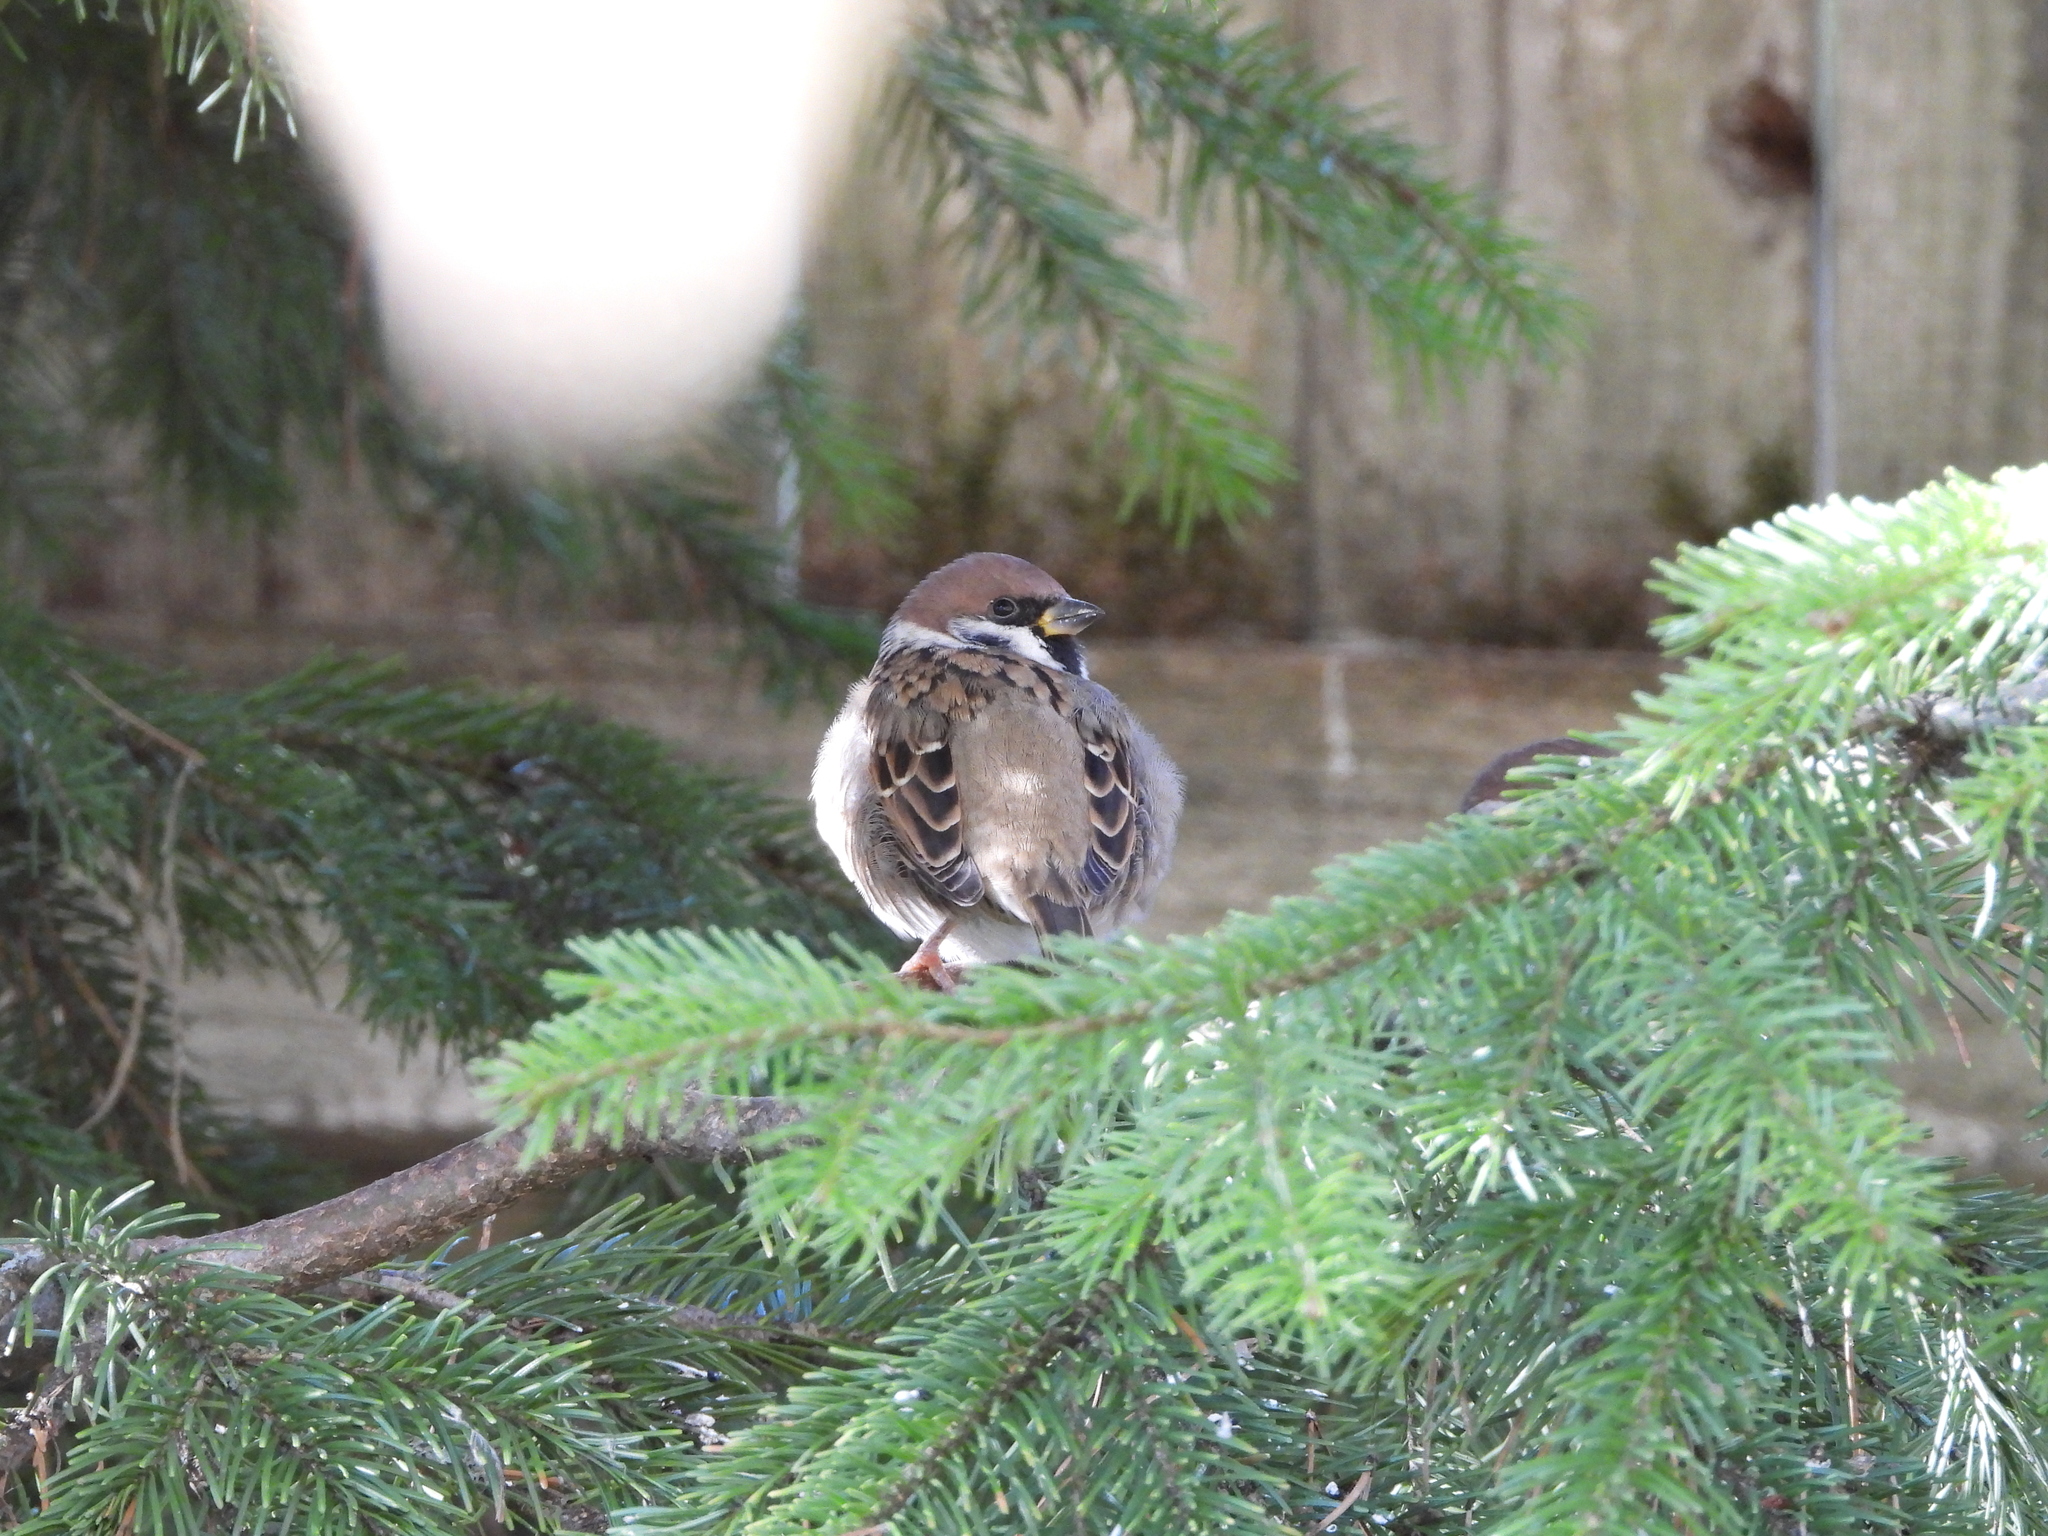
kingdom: Animalia
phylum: Chordata
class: Aves
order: Passeriformes
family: Passeridae
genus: Passer
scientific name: Passer montanus
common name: Eurasian tree sparrow
